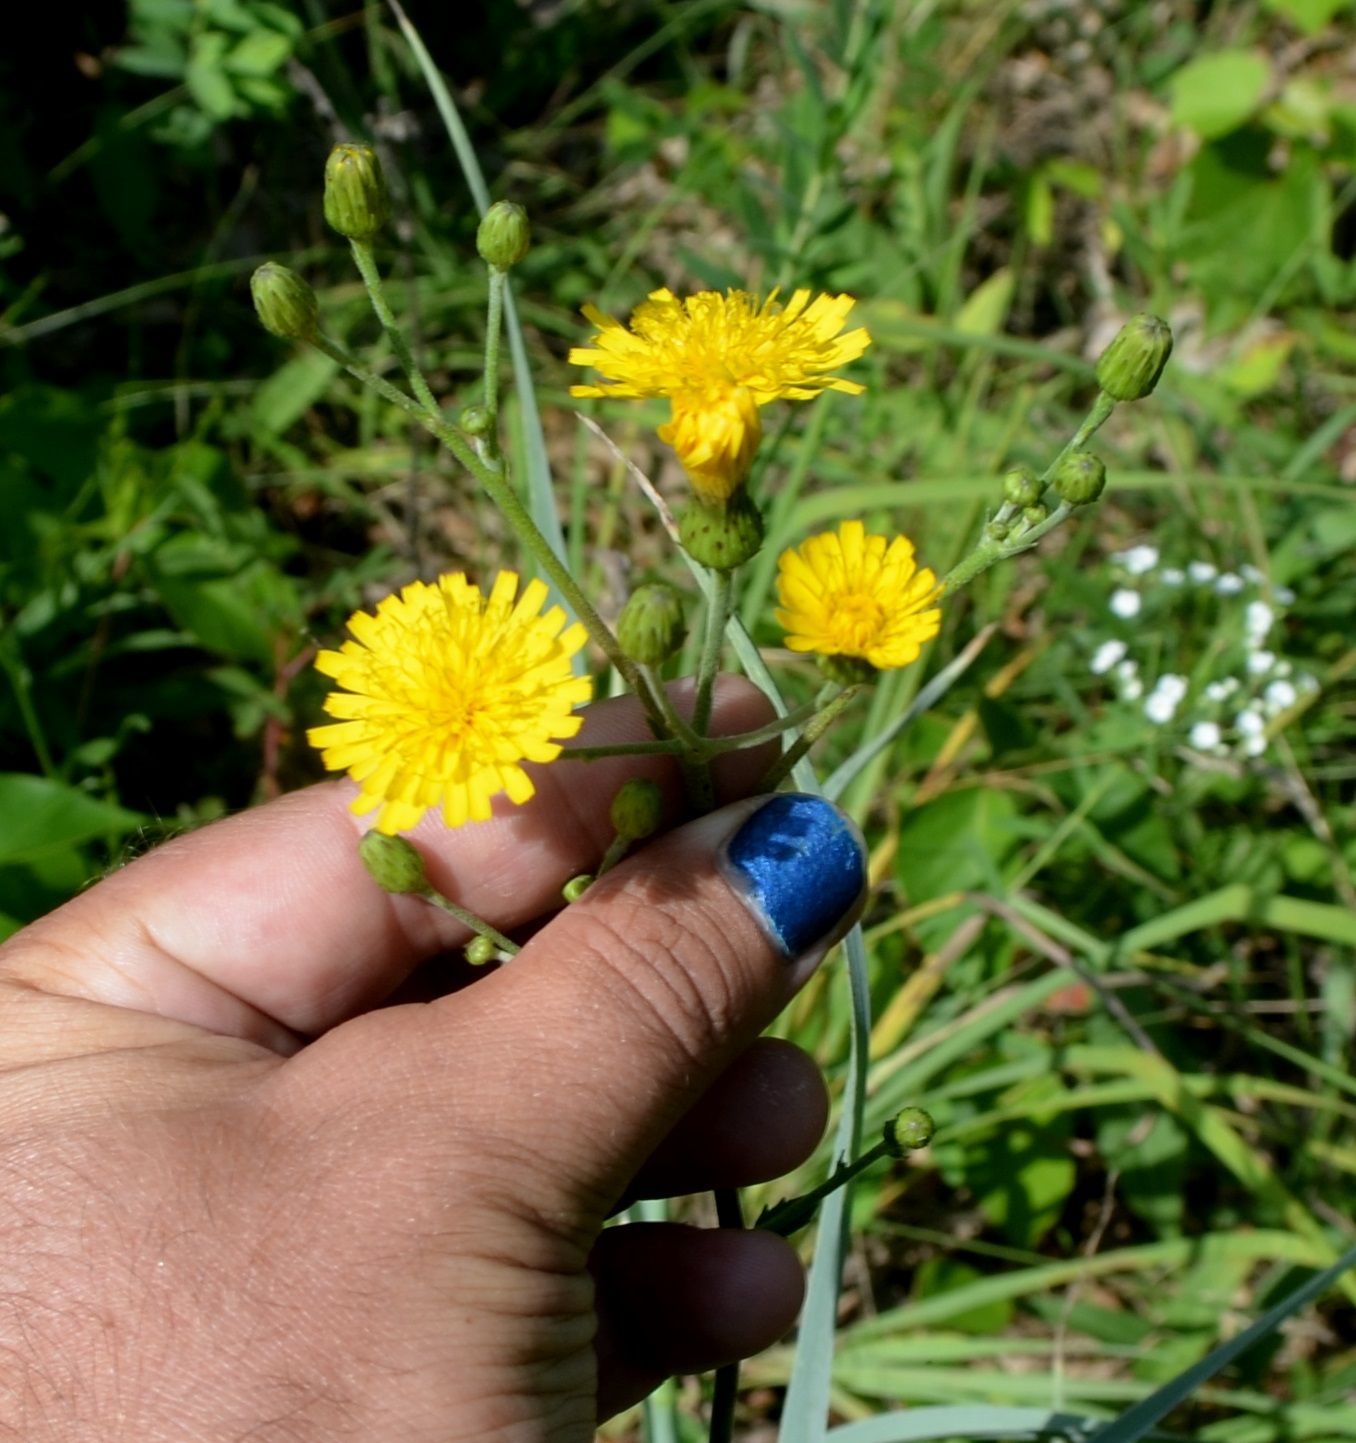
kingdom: Plantae
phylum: Tracheophyta
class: Magnoliopsida
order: Asterales
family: Asteraceae
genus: Hieracium
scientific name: Hieracium umbellatum
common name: Northern hawkweed
